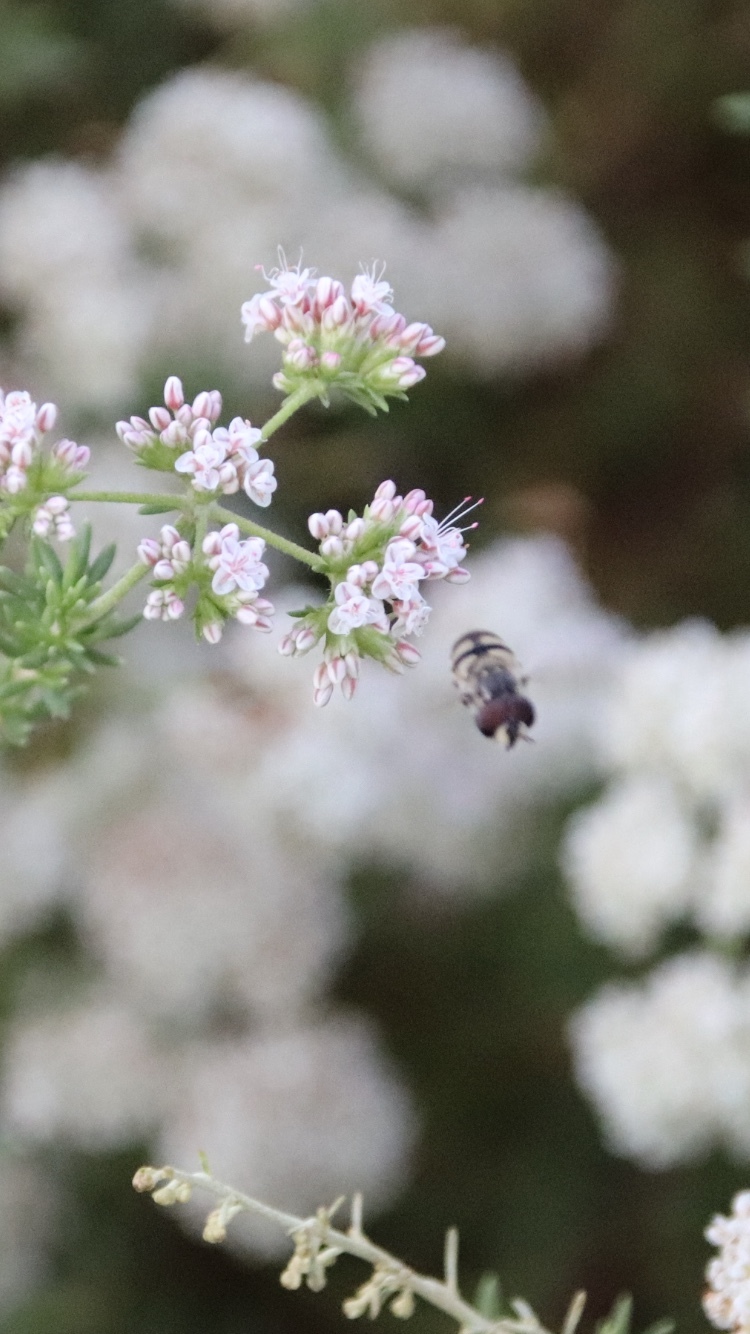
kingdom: Animalia
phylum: Arthropoda
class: Insecta
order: Diptera
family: Syrphidae
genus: Copestylum
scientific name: Copestylum marginatum
